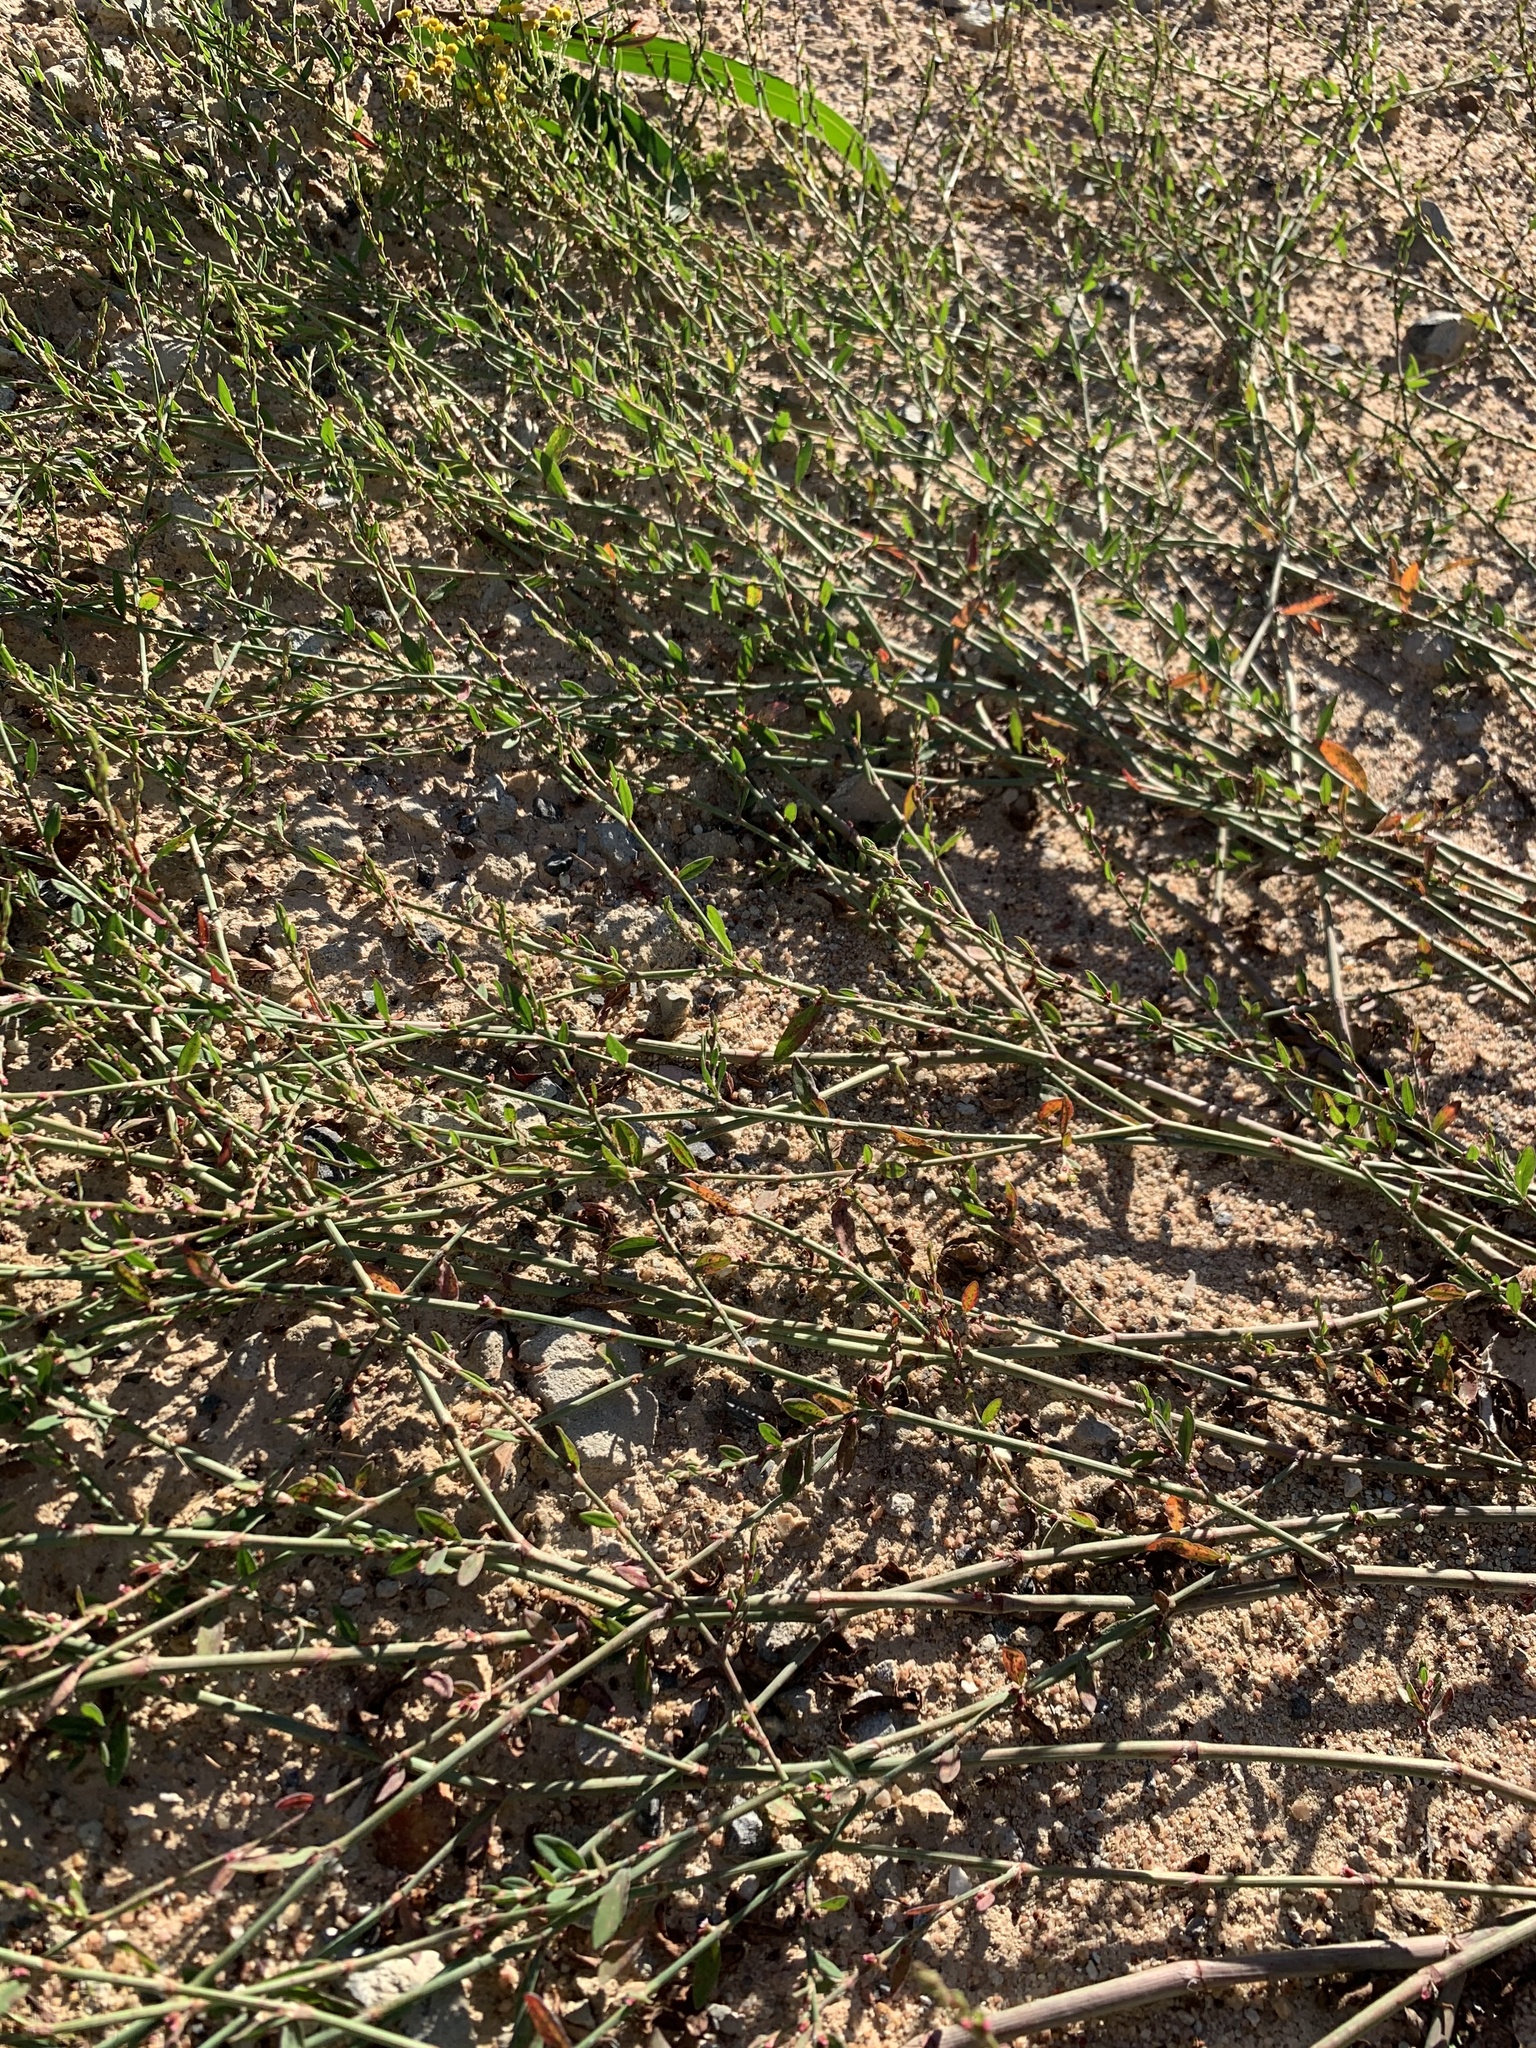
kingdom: Plantae
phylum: Tracheophyta
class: Magnoliopsida
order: Caryophyllales
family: Polygonaceae
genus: Polygonum
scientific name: Polygonum aviculare
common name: Prostrate knotweed
